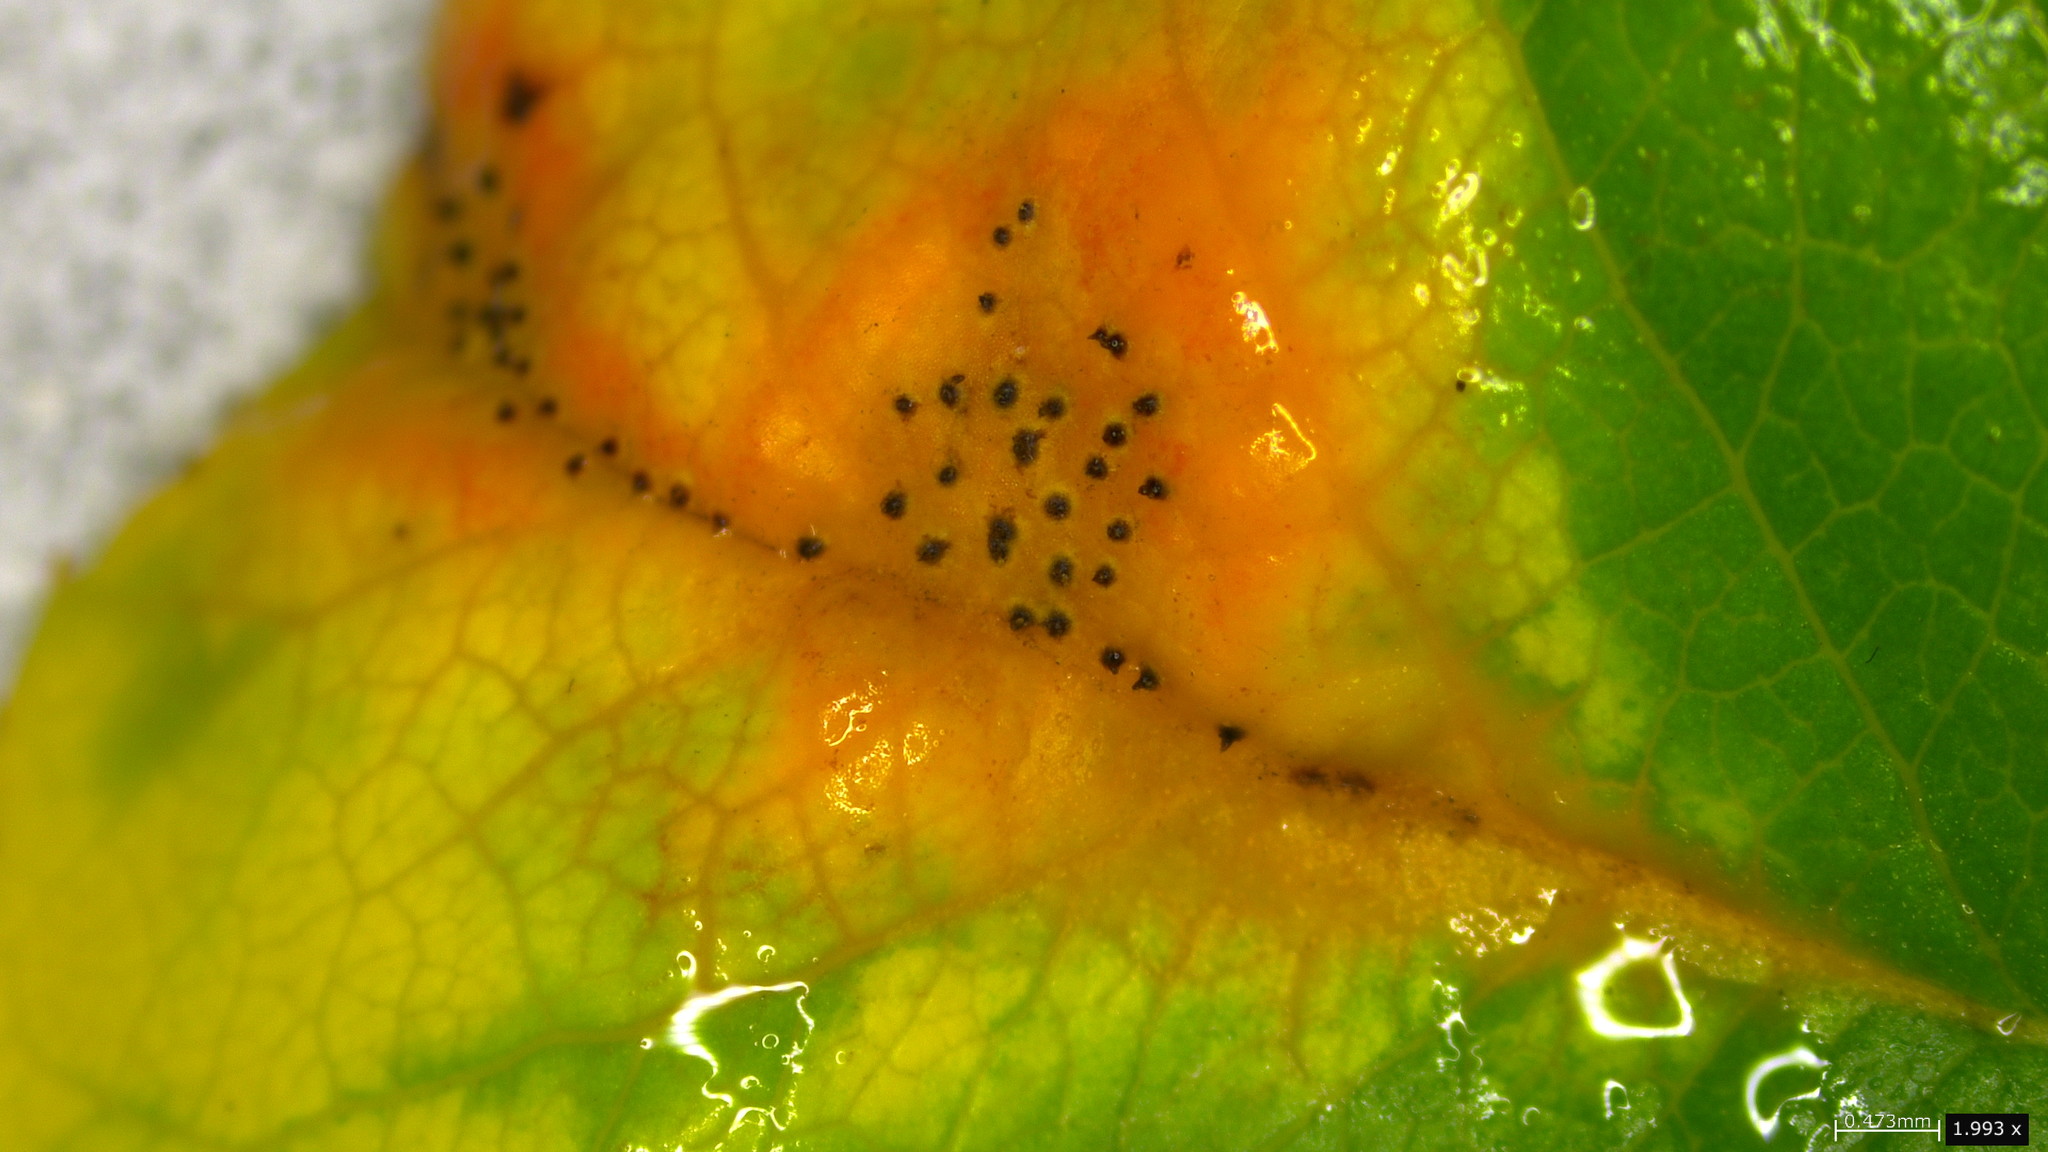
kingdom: Fungi
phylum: Basidiomycota
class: Pucciniomycetes
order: Pucciniales
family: Gymnosporangiaceae
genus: Gymnosporangium
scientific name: Gymnosporangium asiaticum
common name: Japanese pear rust
